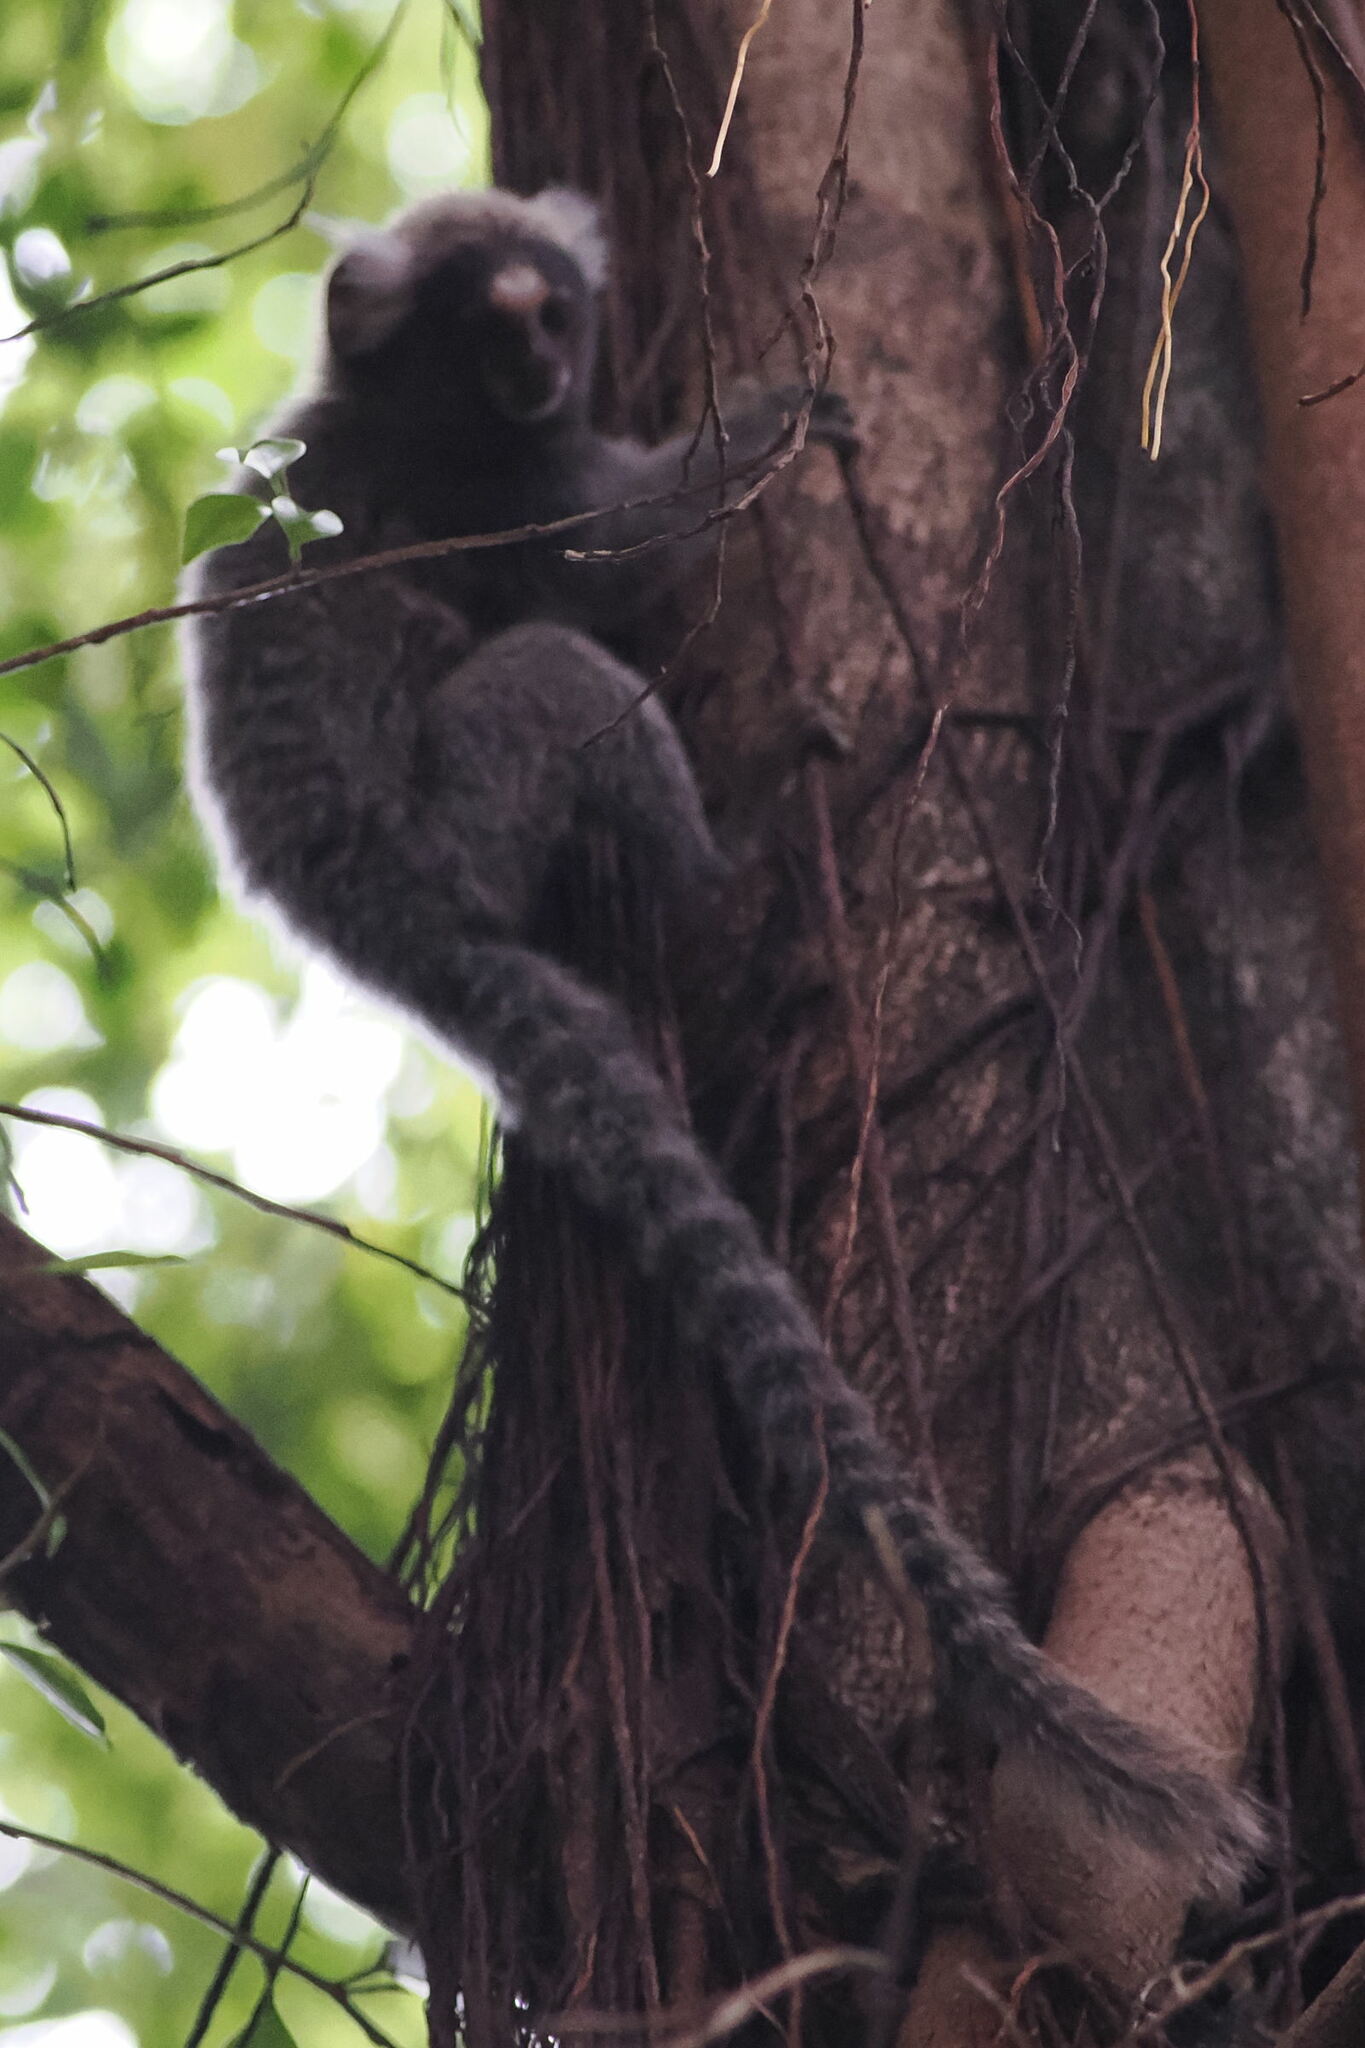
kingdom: Animalia
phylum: Chordata
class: Mammalia
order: Primates
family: Callitrichidae
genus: Callithrix
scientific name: Callithrix jacchus
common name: Common marmoset
